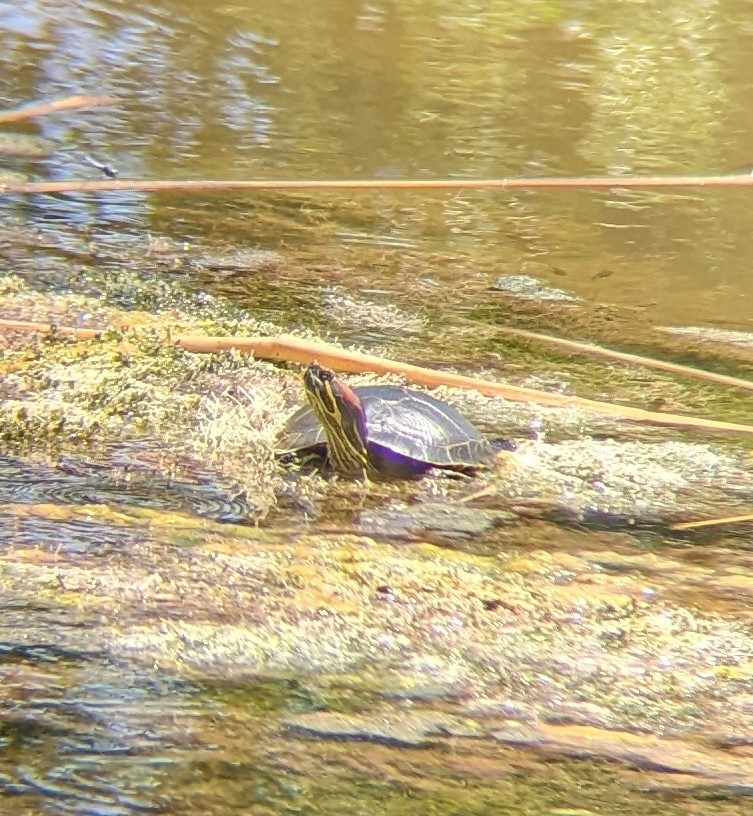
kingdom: Animalia
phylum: Chordata
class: Testudines
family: Emydidae
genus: Trachemys
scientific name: Trachemys scripta
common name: Slider
